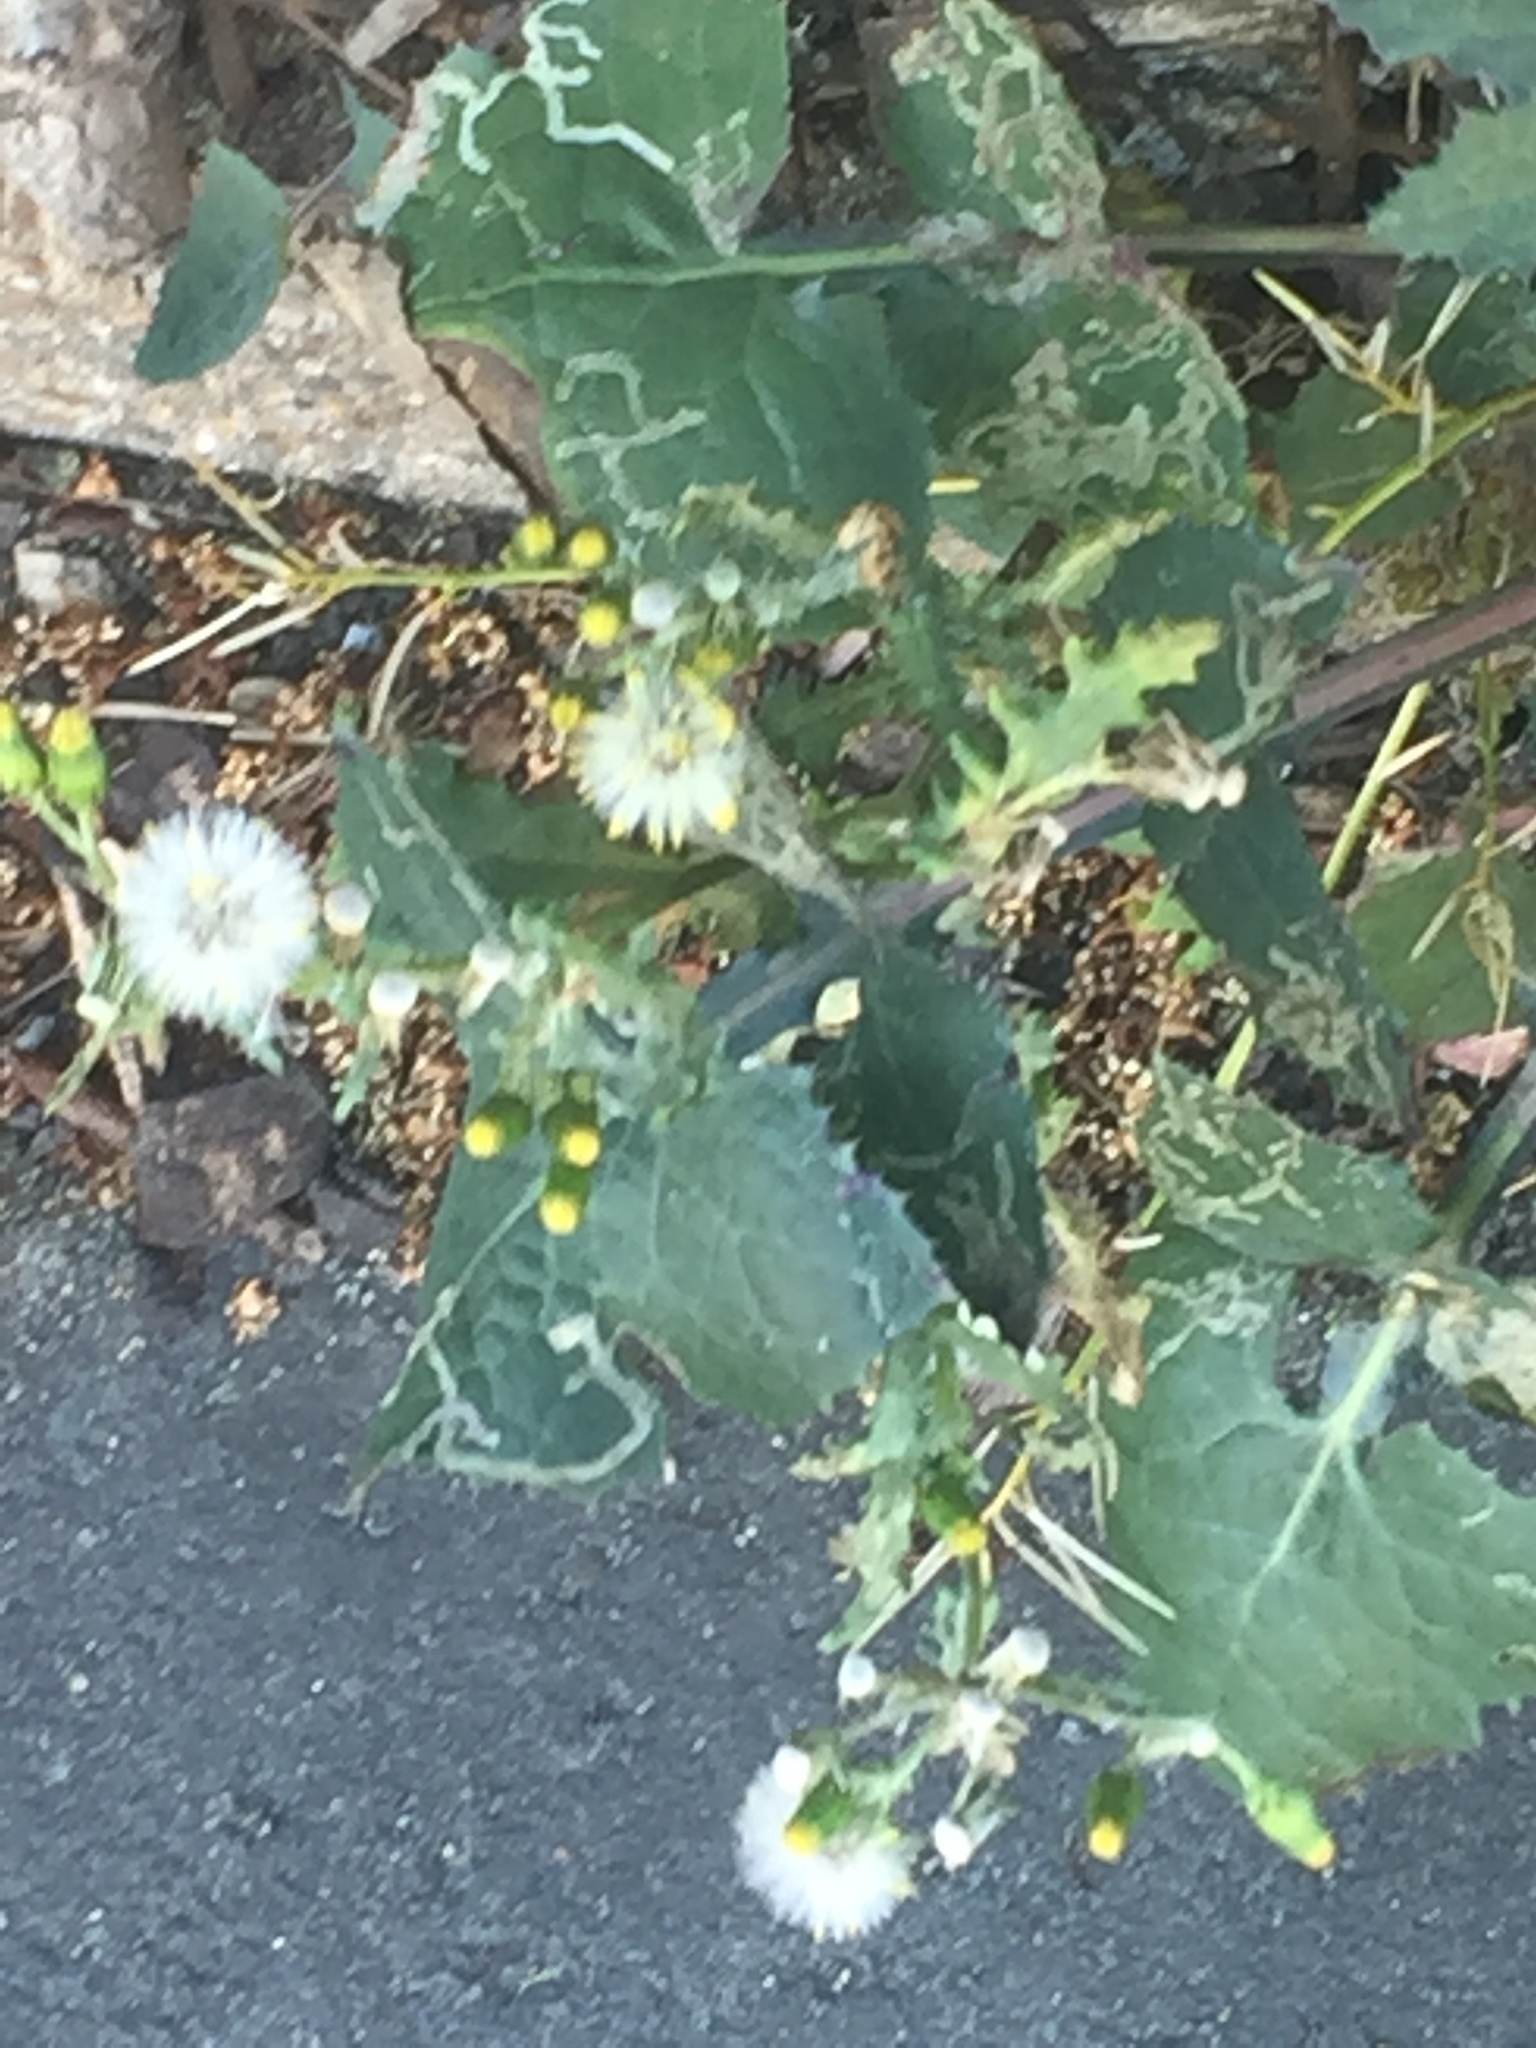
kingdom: Plantae
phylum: Tracheophyta
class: Magnoliopsida
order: Asterales
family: Asteraceae
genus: Senecio
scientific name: Senecio vulgaris
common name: Old-man-in-the-spring
